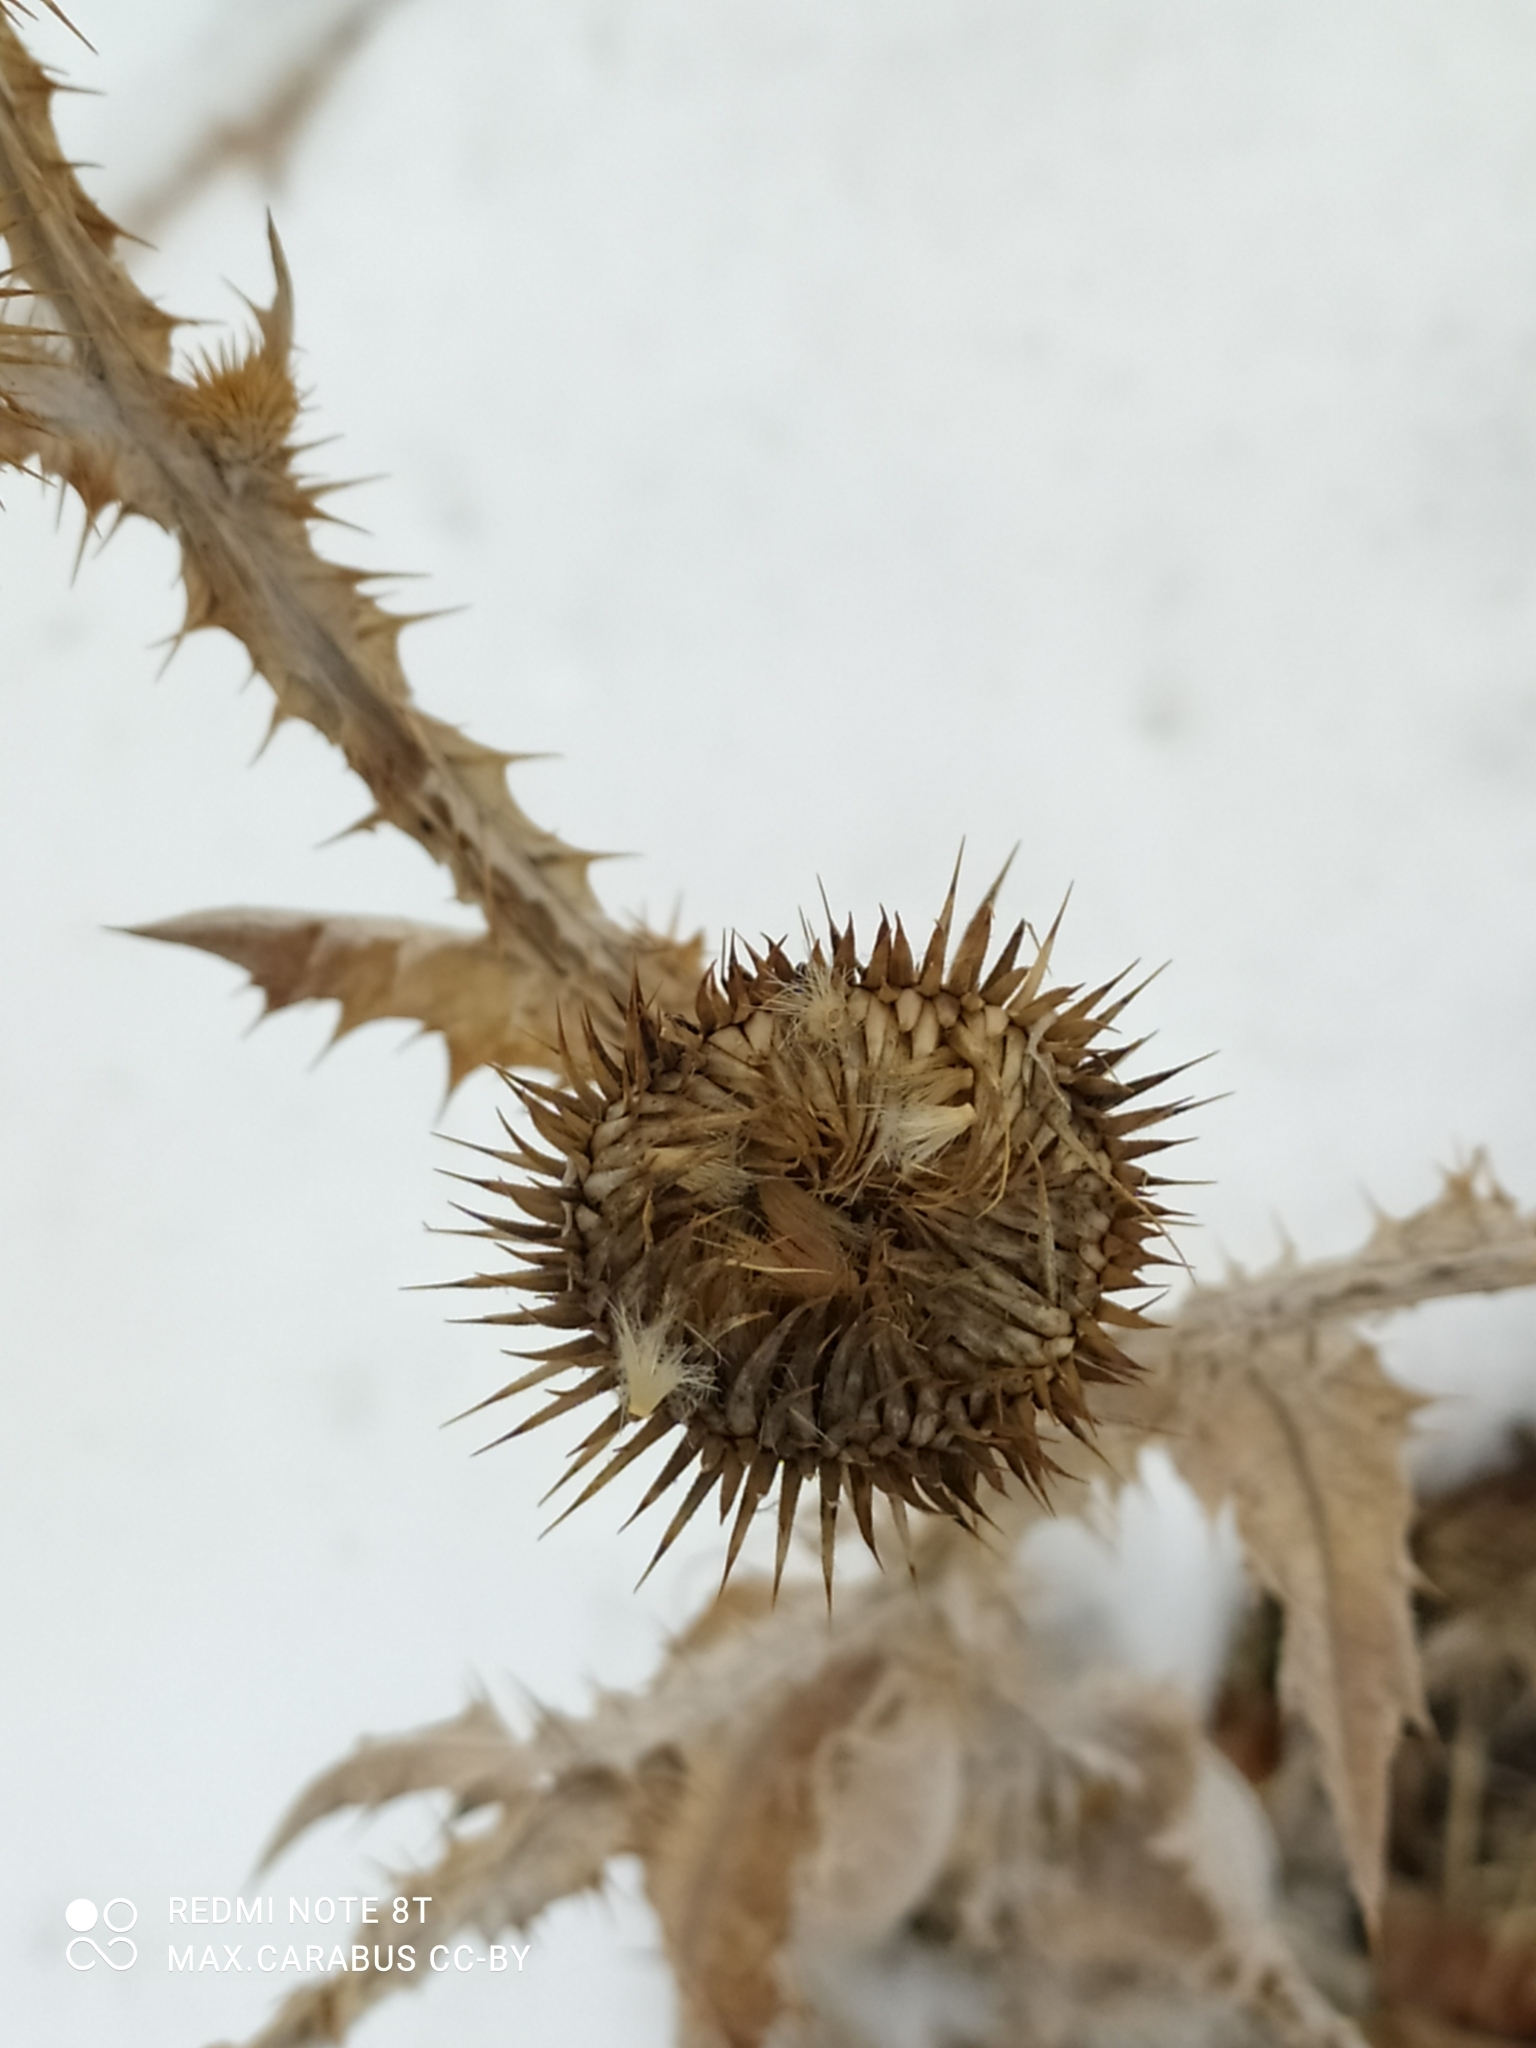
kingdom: Plantae
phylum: Tracheophyta
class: Magnoliopsida
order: Asterales
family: Asteraceae
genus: Onopordum
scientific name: Onopordum acanthium
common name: Scotch thistle
